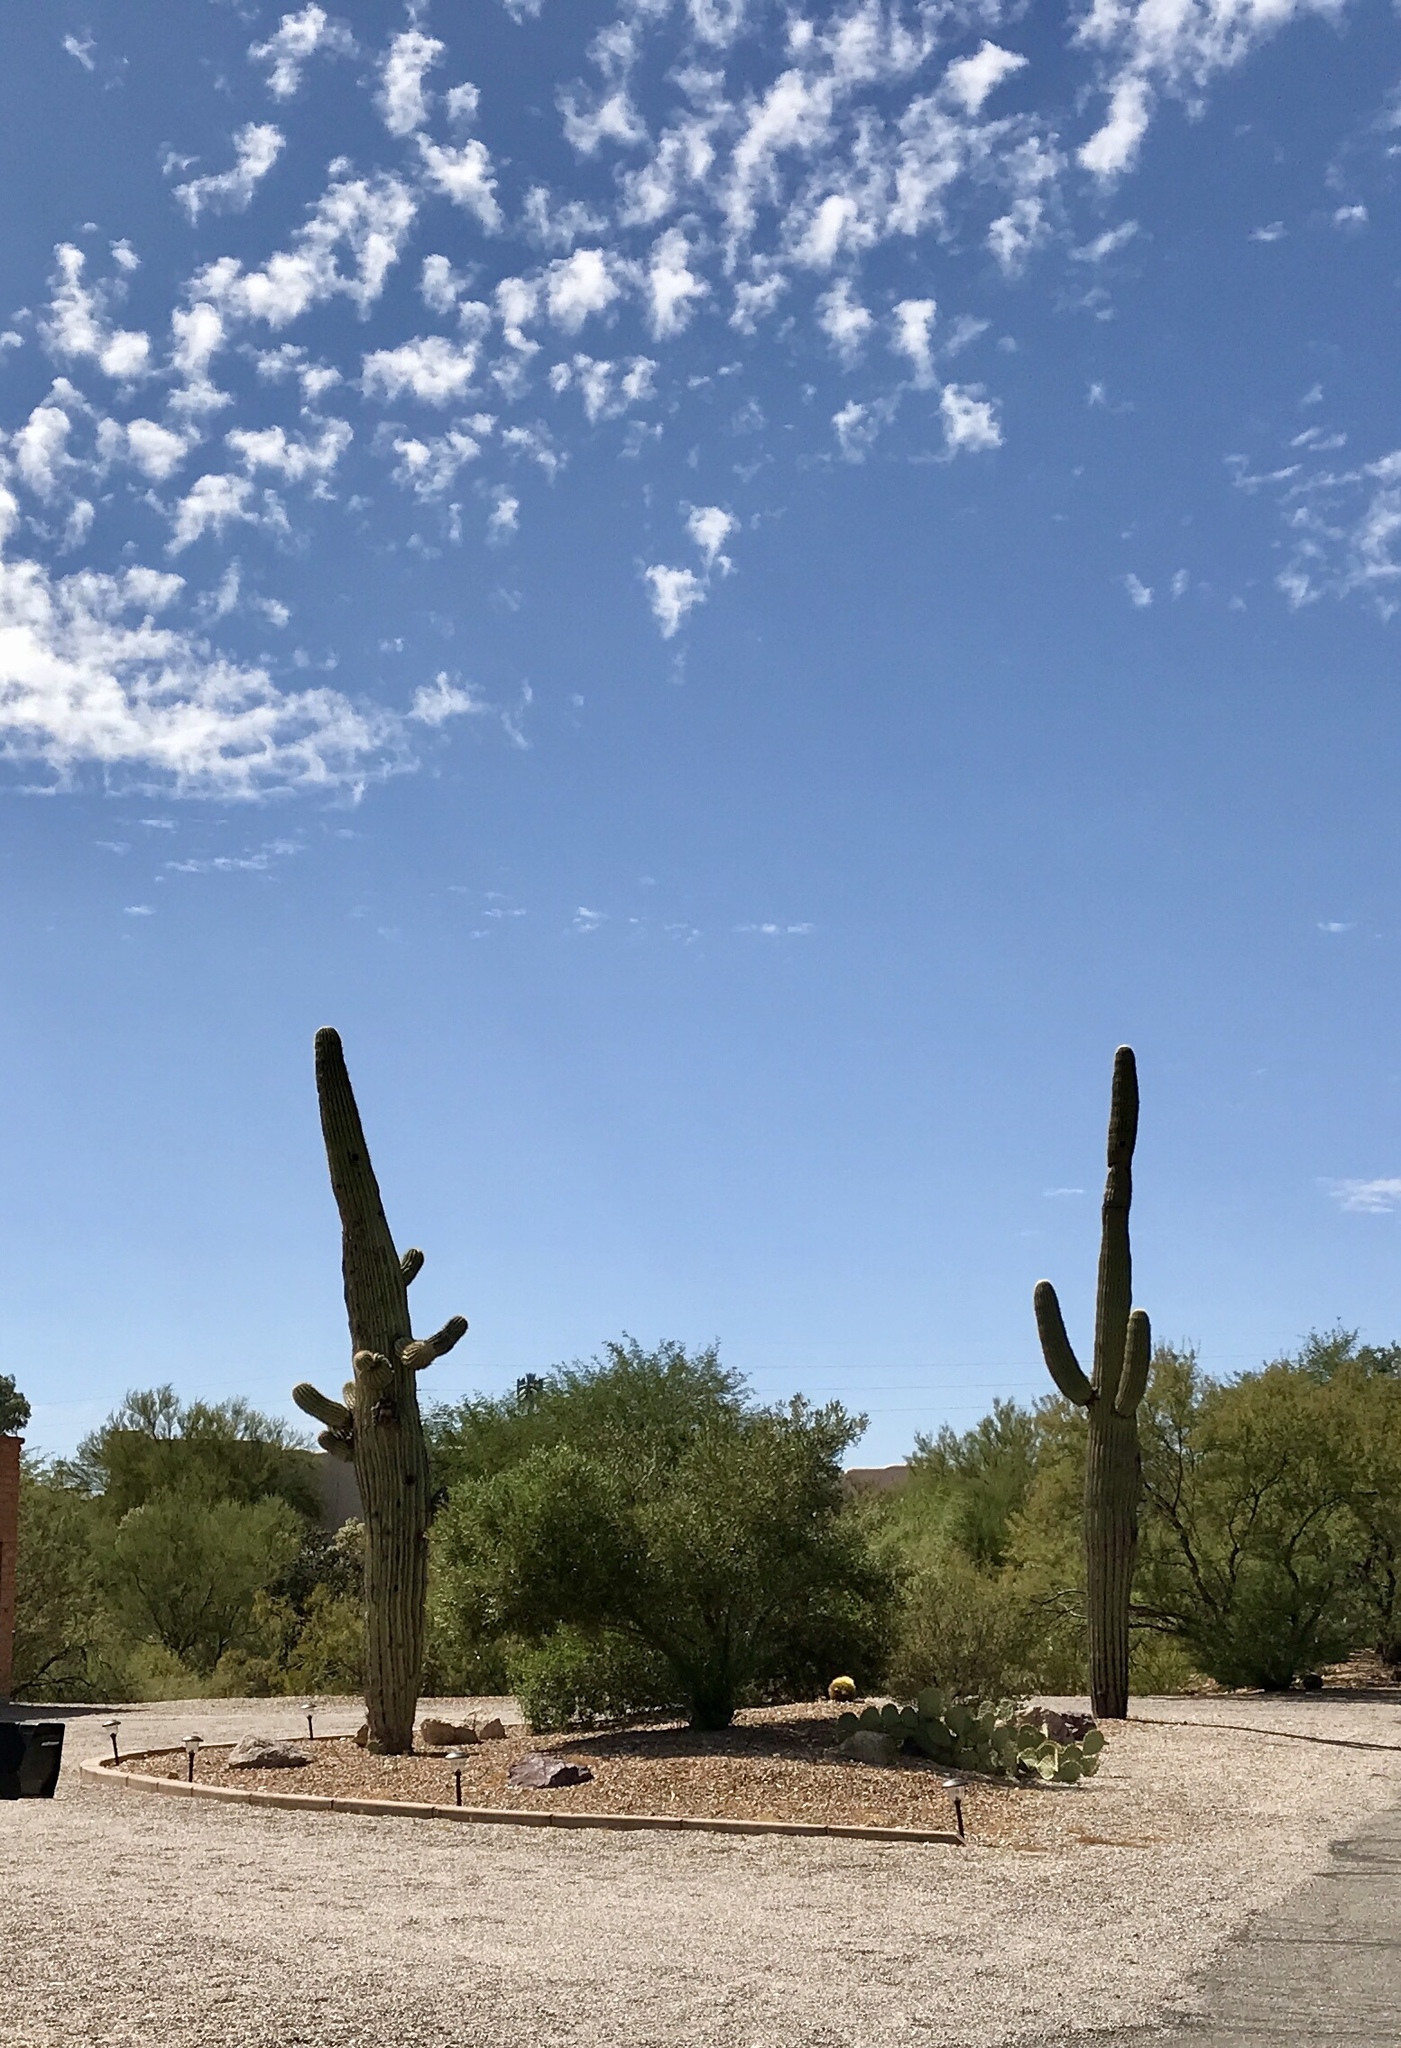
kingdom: Plantae
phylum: Tracheophyta
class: Magnoliopsida
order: Caryophyllales
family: Cactaceae
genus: Carnegiea
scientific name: Carnegiea gigantea
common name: Saguaro
